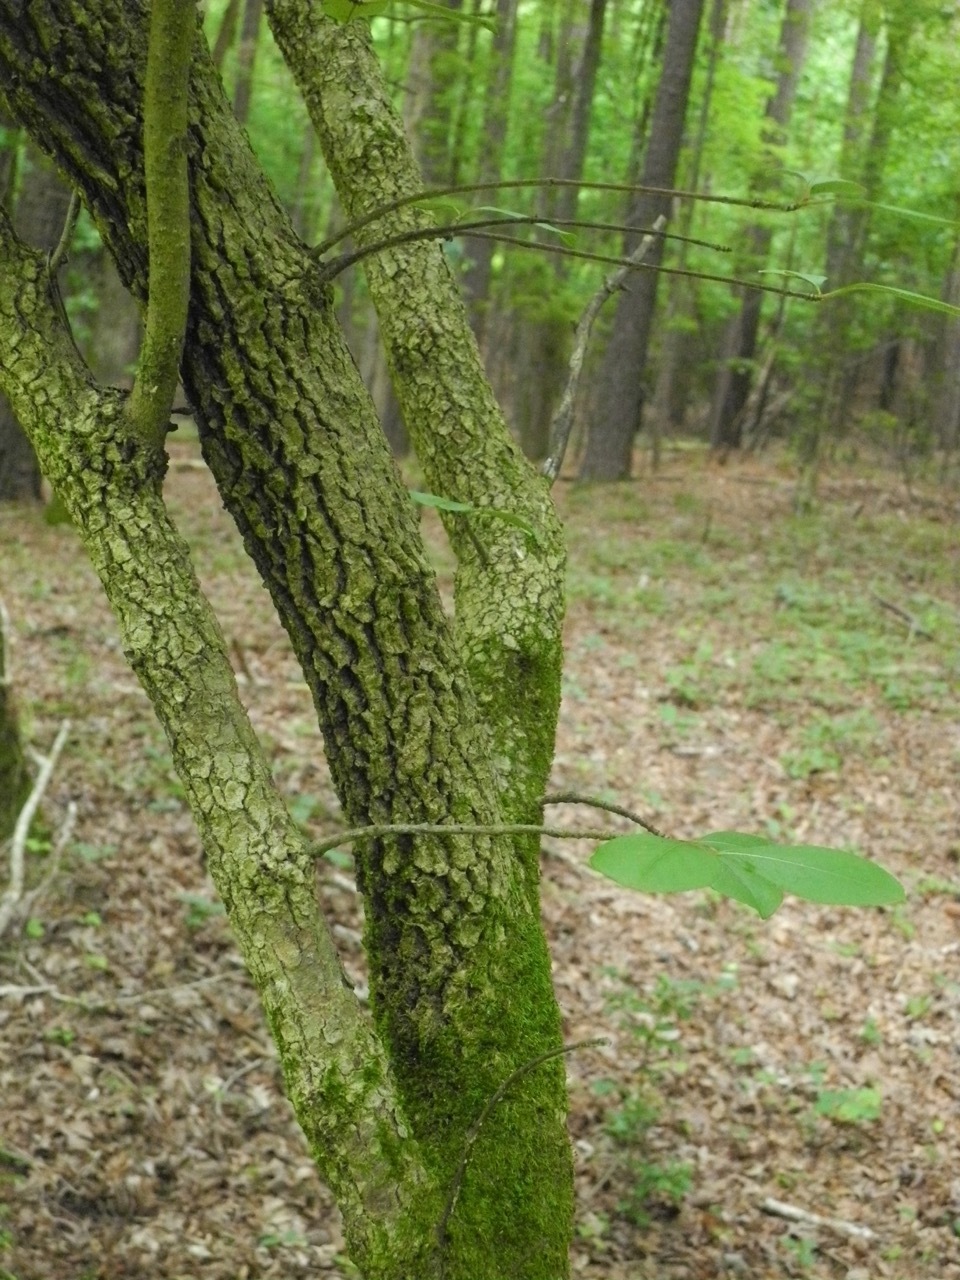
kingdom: Plantae
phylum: Tracheophyta
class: Magnoliopsida
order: Dipsacales
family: Viburnaceae
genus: Viburnum
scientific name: Viburnum rufidulum
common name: Blue haw
